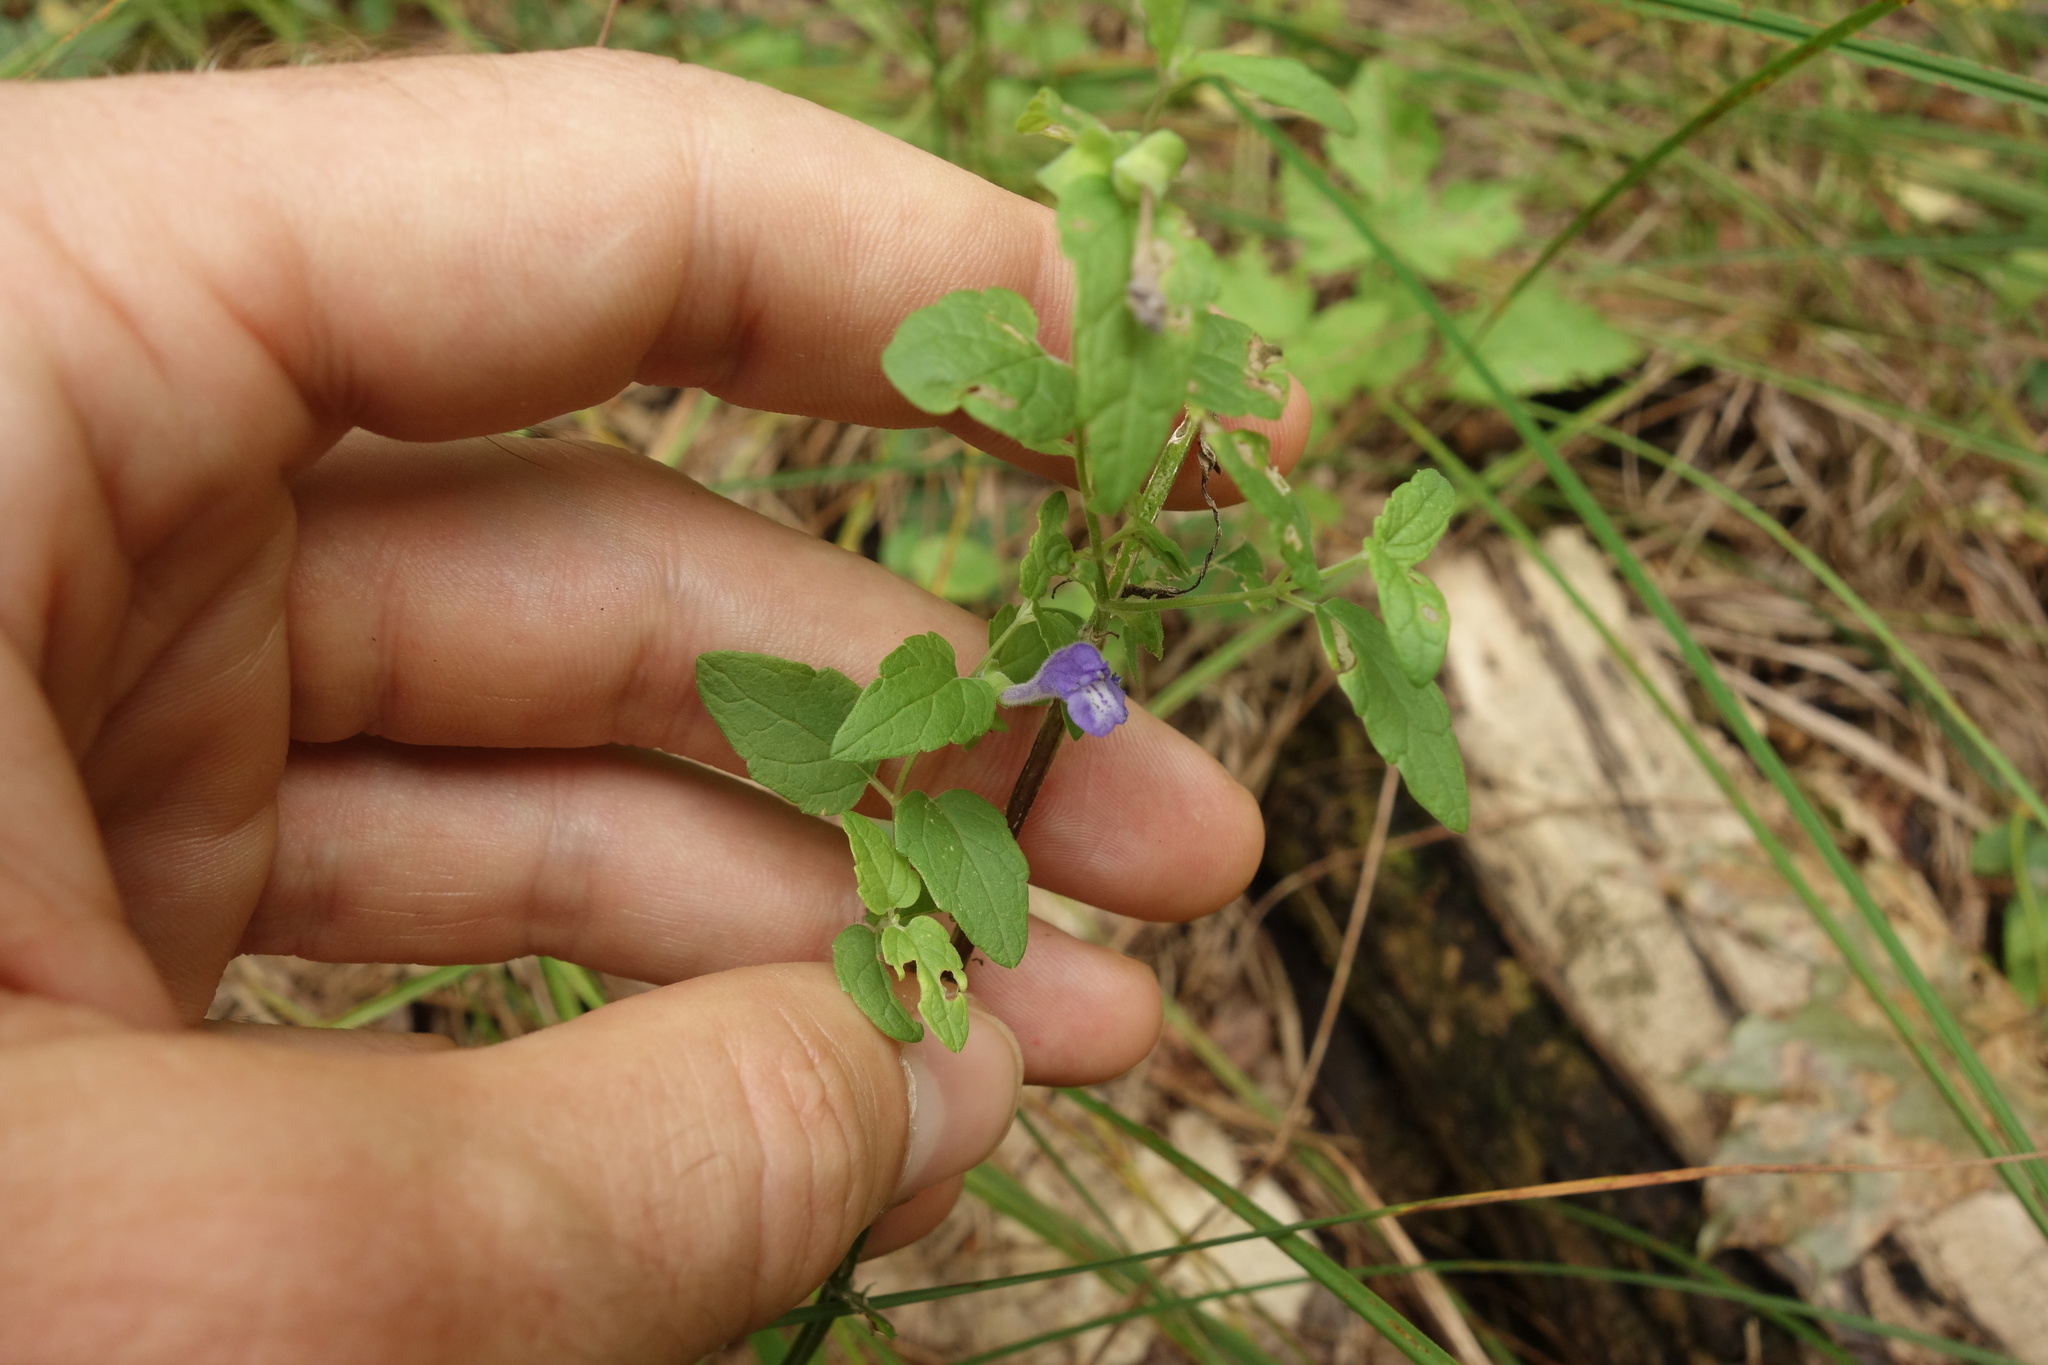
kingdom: Plantae
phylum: Tracheophyta
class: Magnoliopsida
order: Lamiales
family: Lamiaceae
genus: Scutellaria
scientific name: Scutellaria galericulata
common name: Skullcap
